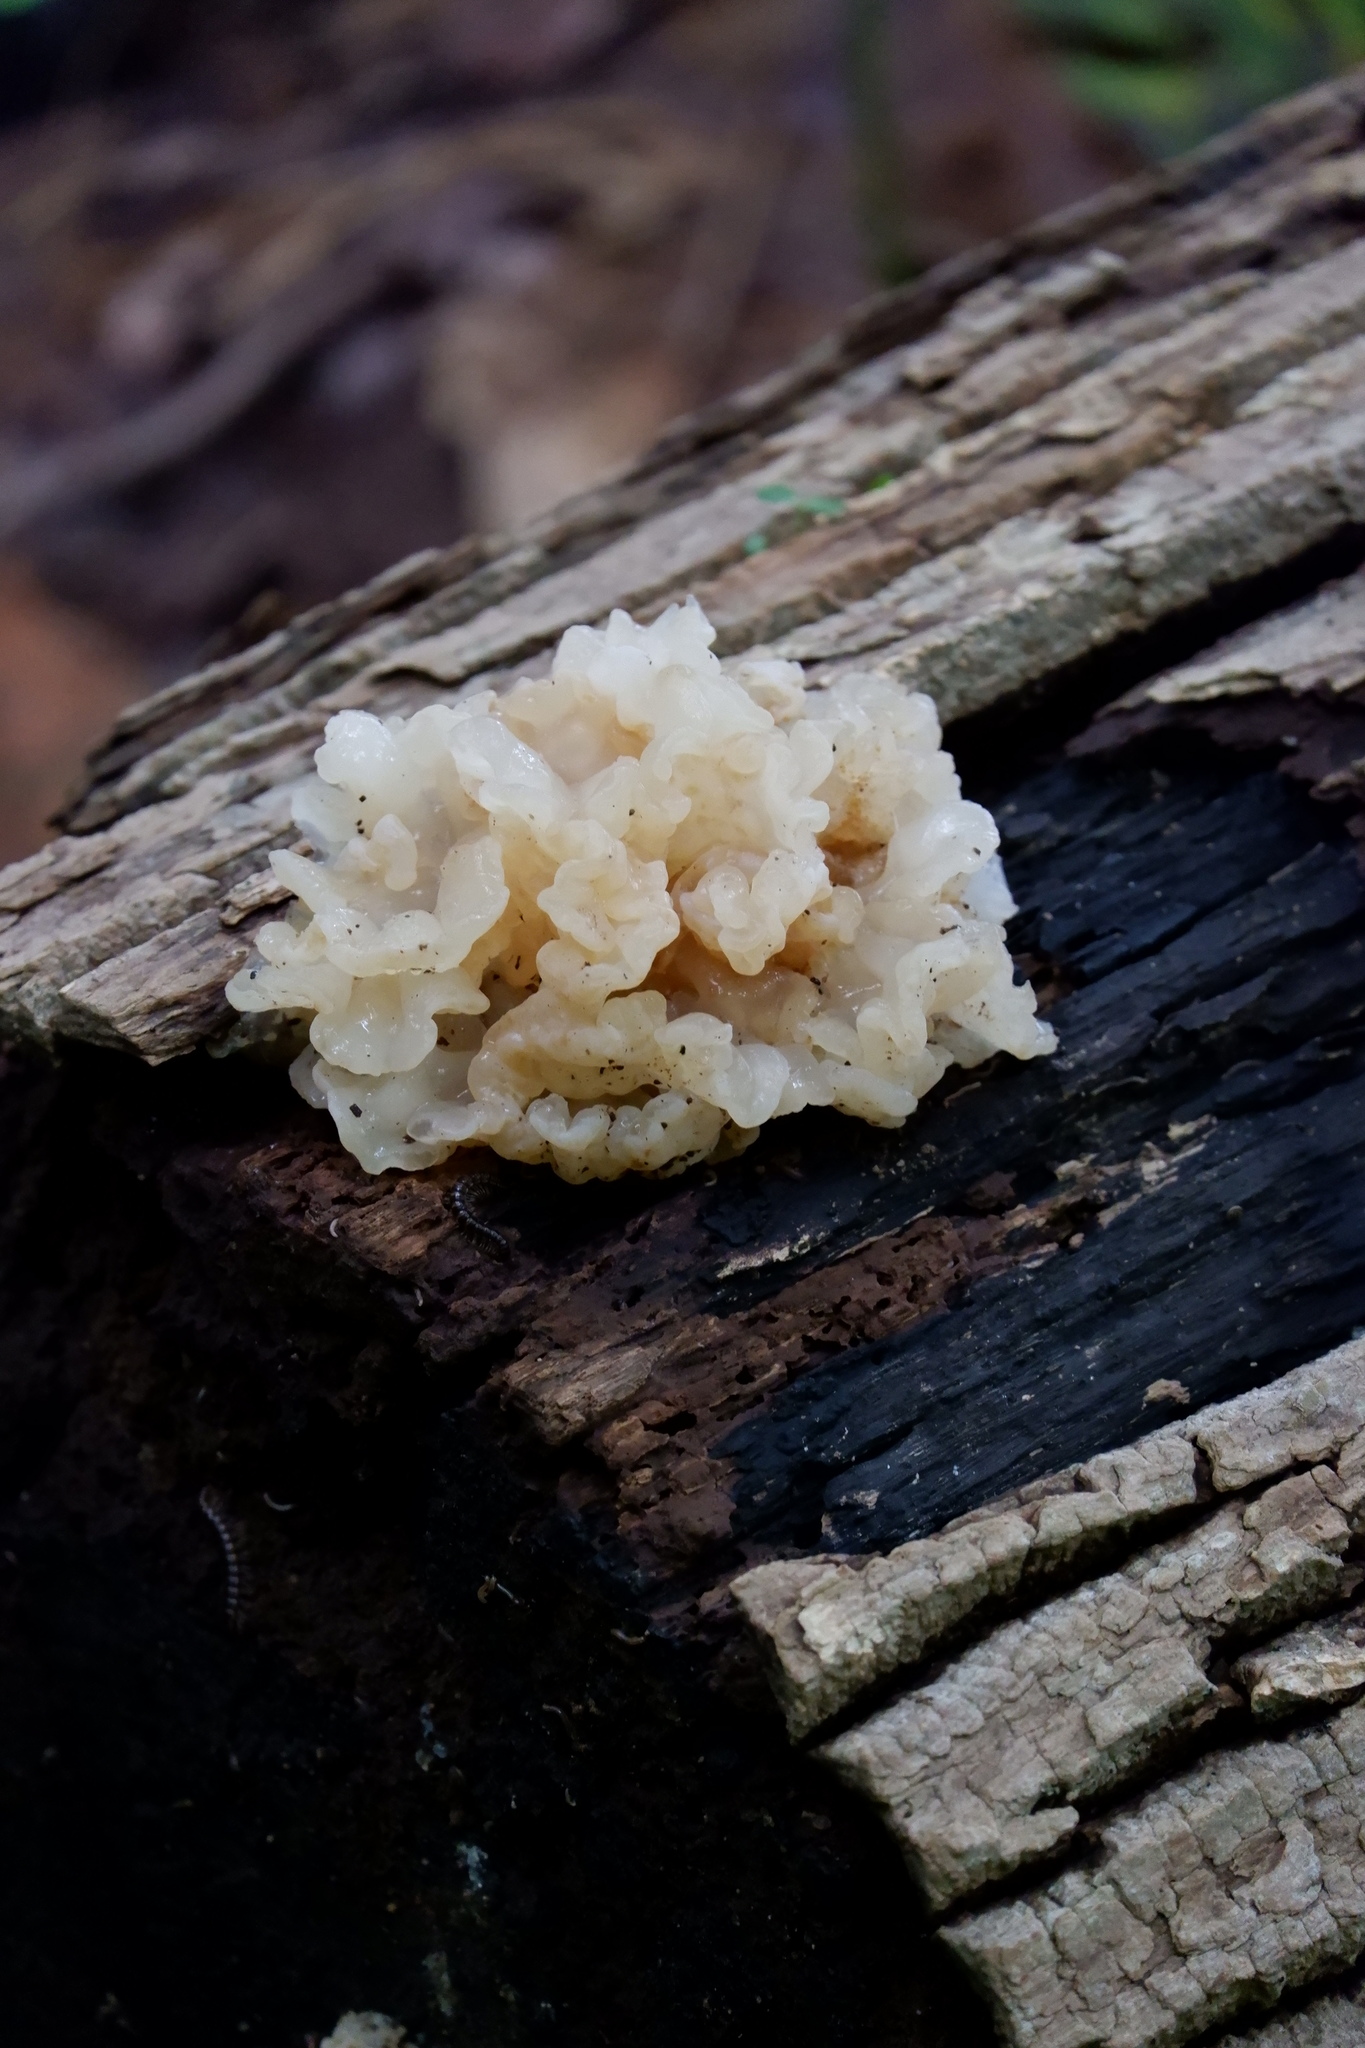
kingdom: Fungi
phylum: Basidiomycota
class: Agaricomycetes
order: Auriculariales
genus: Ductifera
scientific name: Ductifera pululahuana
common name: White jelly fungus
